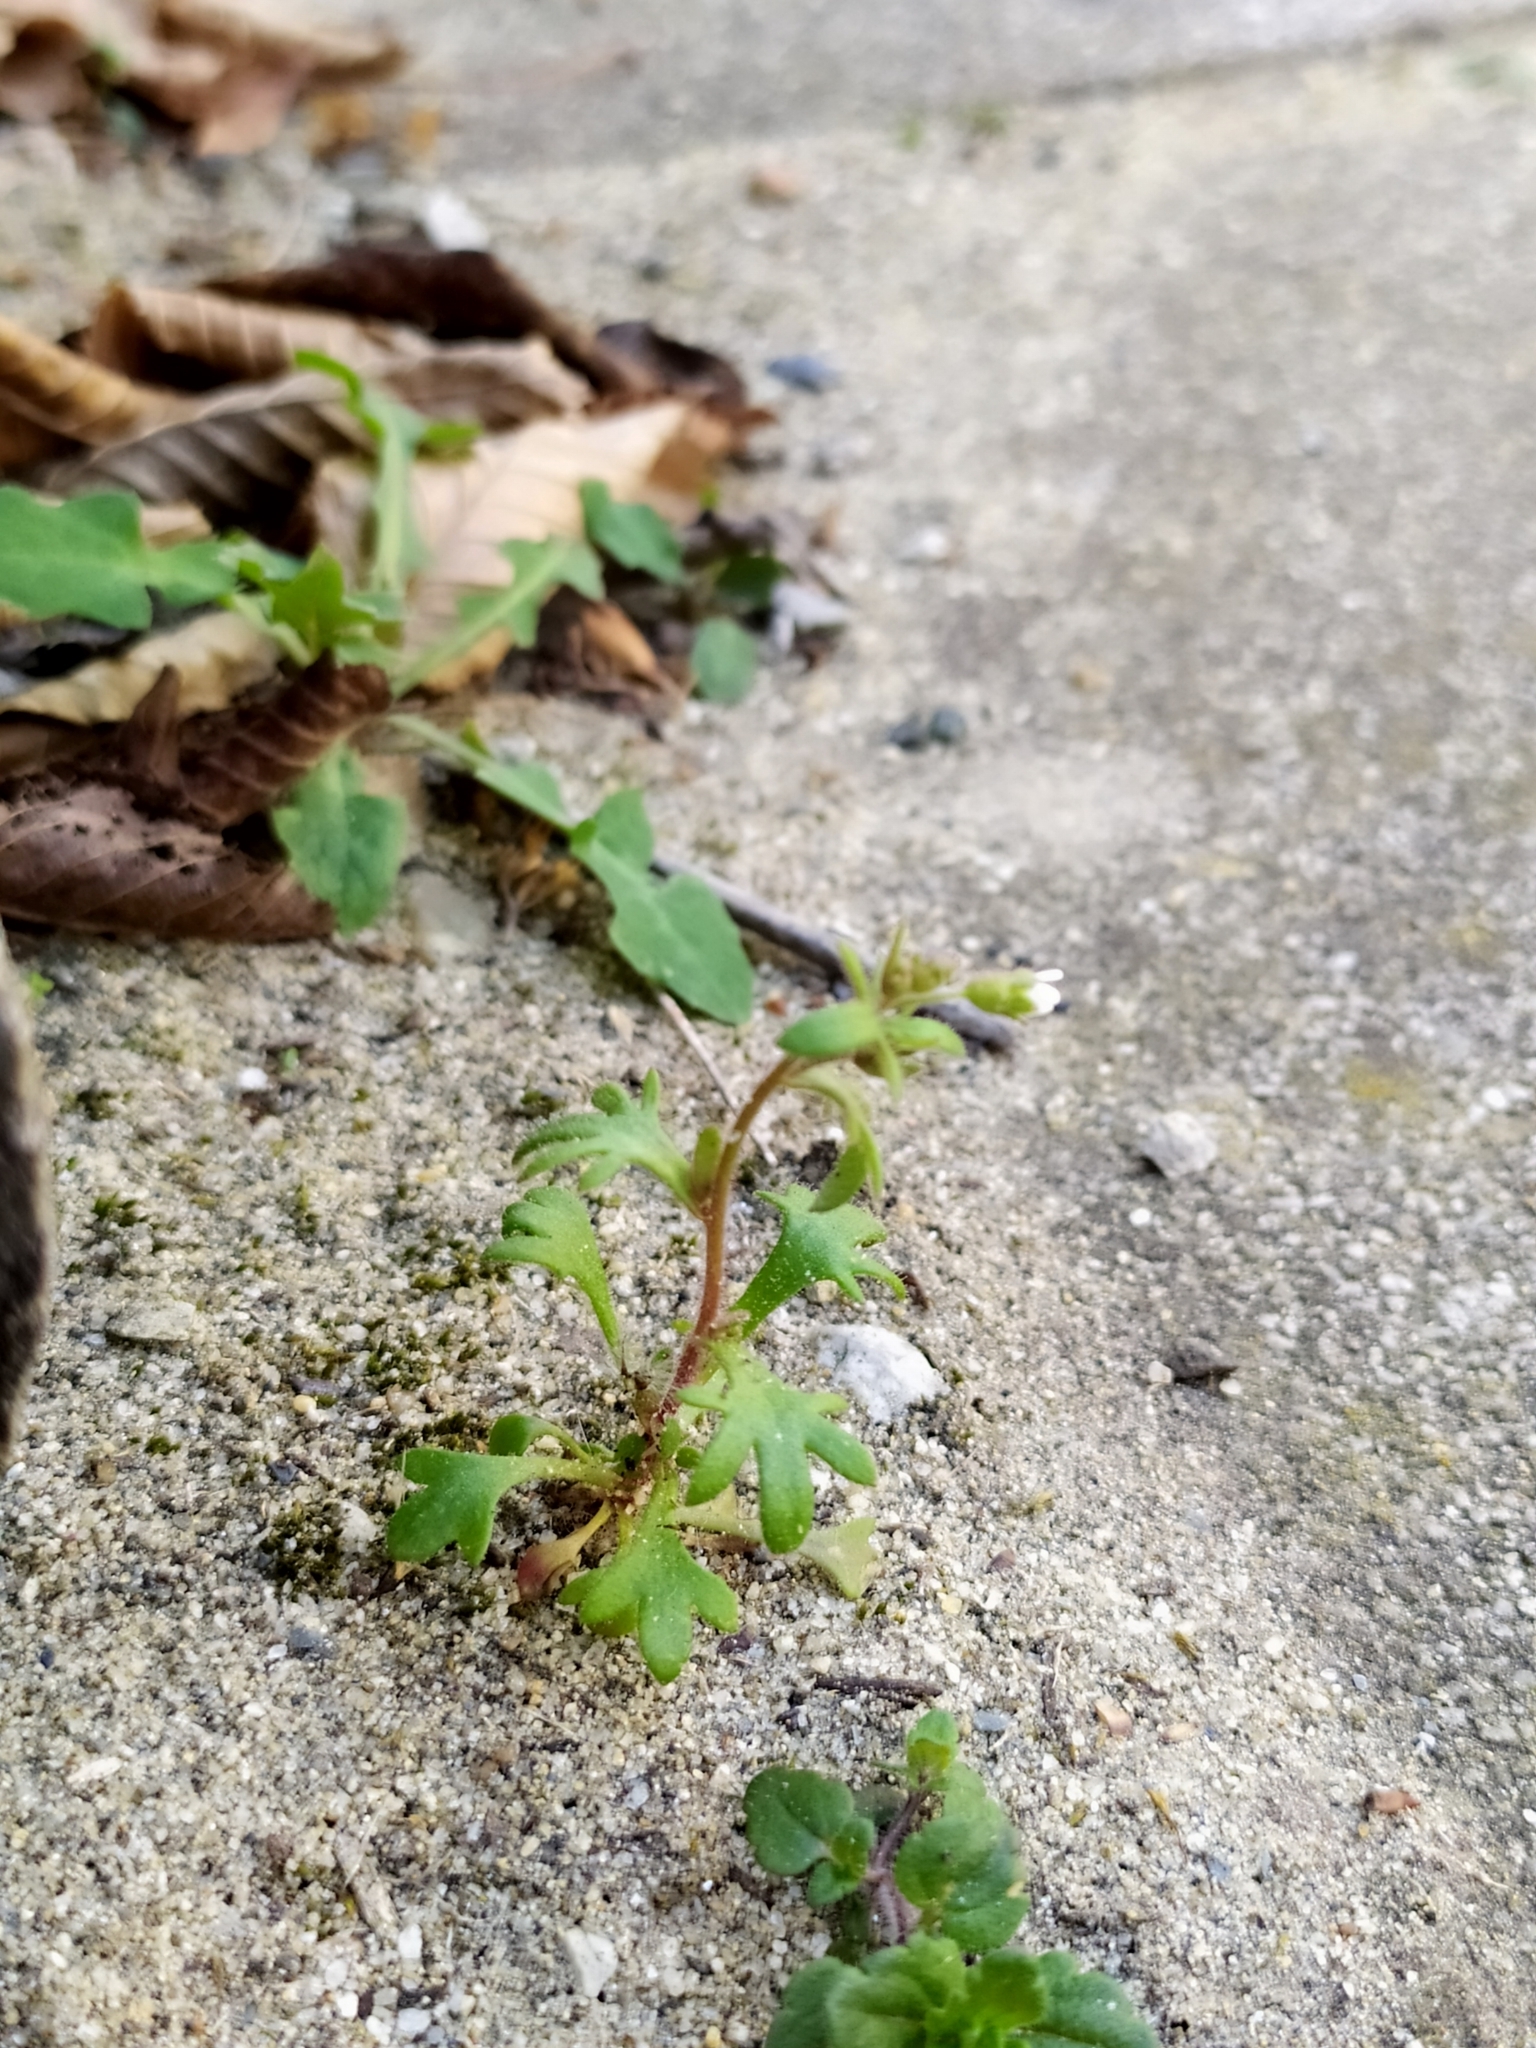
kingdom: Plantae
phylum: Tracheophyta
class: Magnoliopsida
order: Saxifragales
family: Saxifragaceae
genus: Saxifraga
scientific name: Saxifraga tridactylites
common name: Rue-leaved saxifrage
